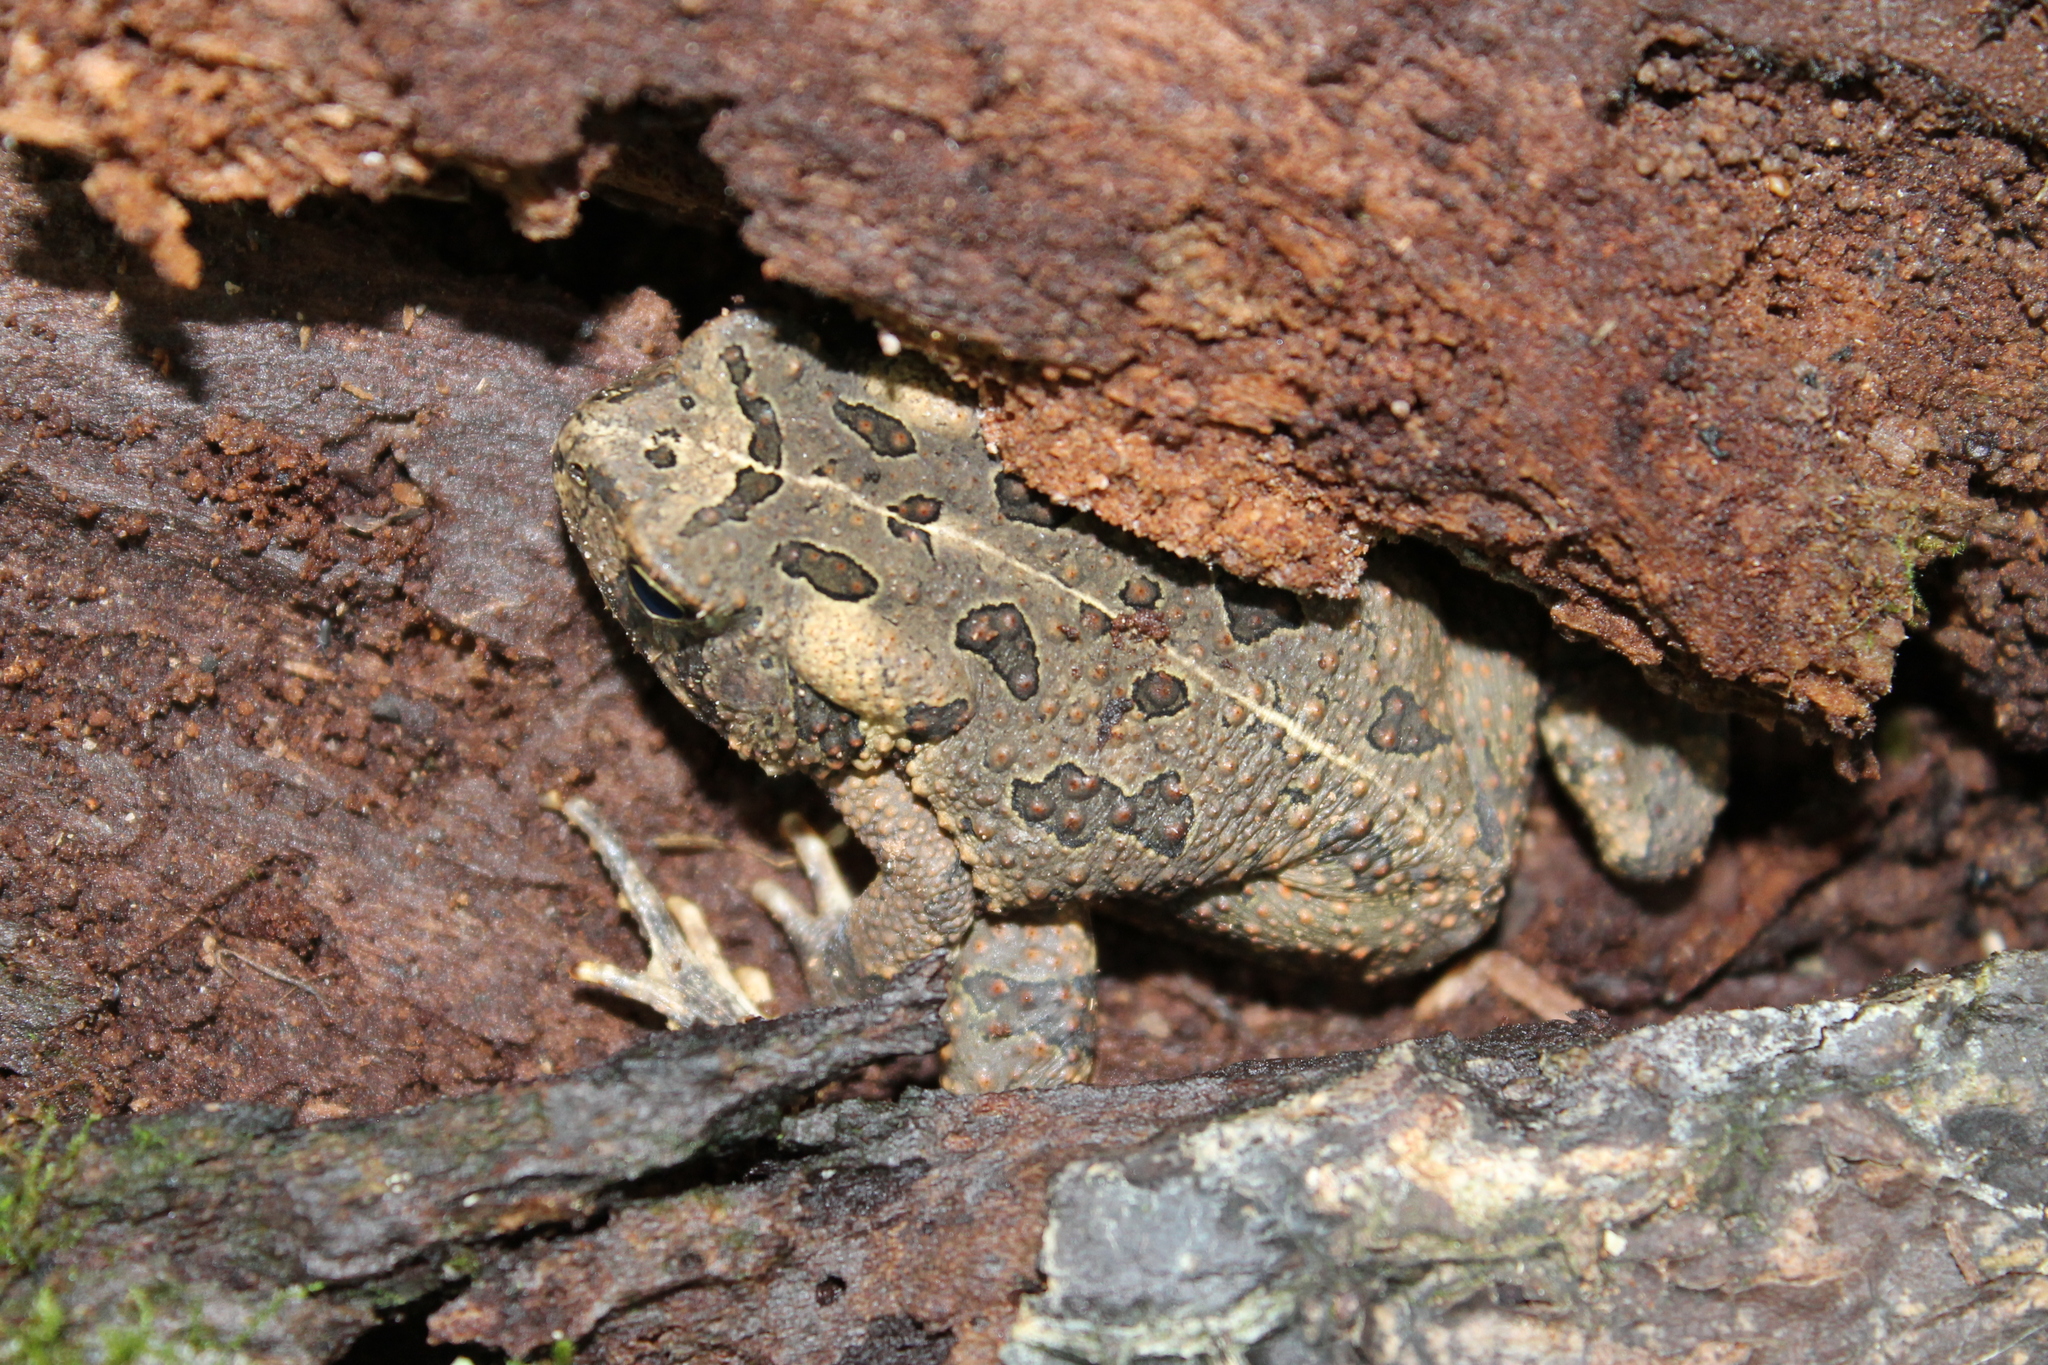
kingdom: Animalia
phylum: Chordata
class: Amphibia
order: Anura
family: Bufonidae
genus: Anaxyrus
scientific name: Anaxyrus fowleri
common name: Fowler's toad
